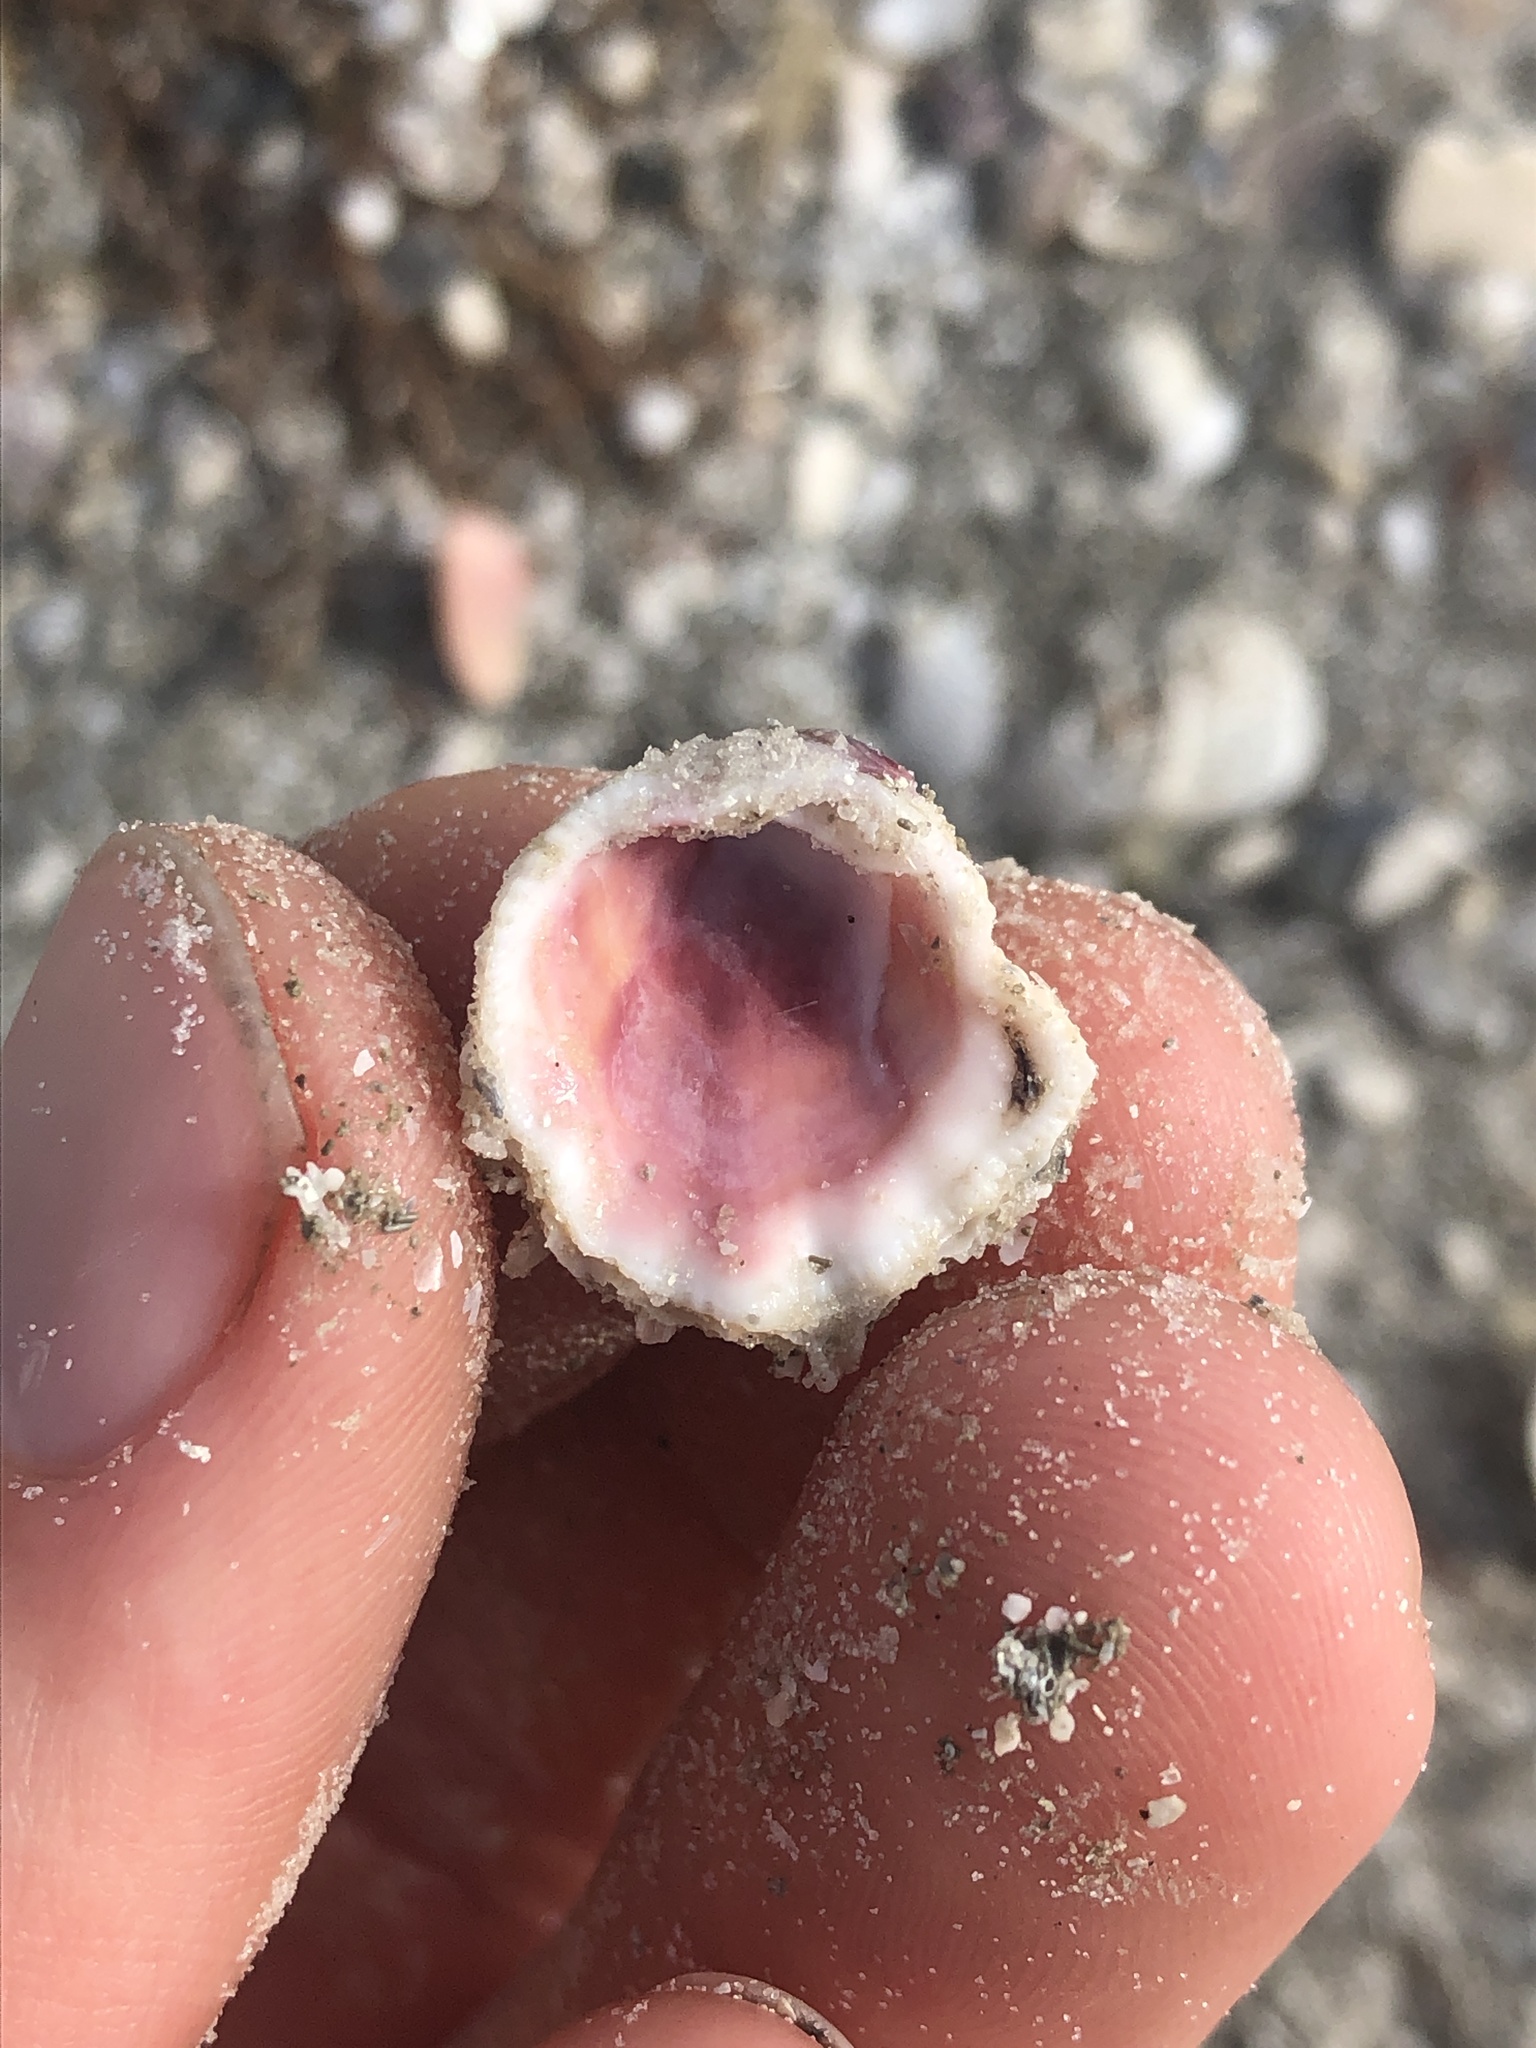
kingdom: Animalia
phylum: Mollusca
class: Bivalvia
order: Venerida
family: Chamidae
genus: Arcinella
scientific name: Arcinella cornuta
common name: Florida spiny jewel box
